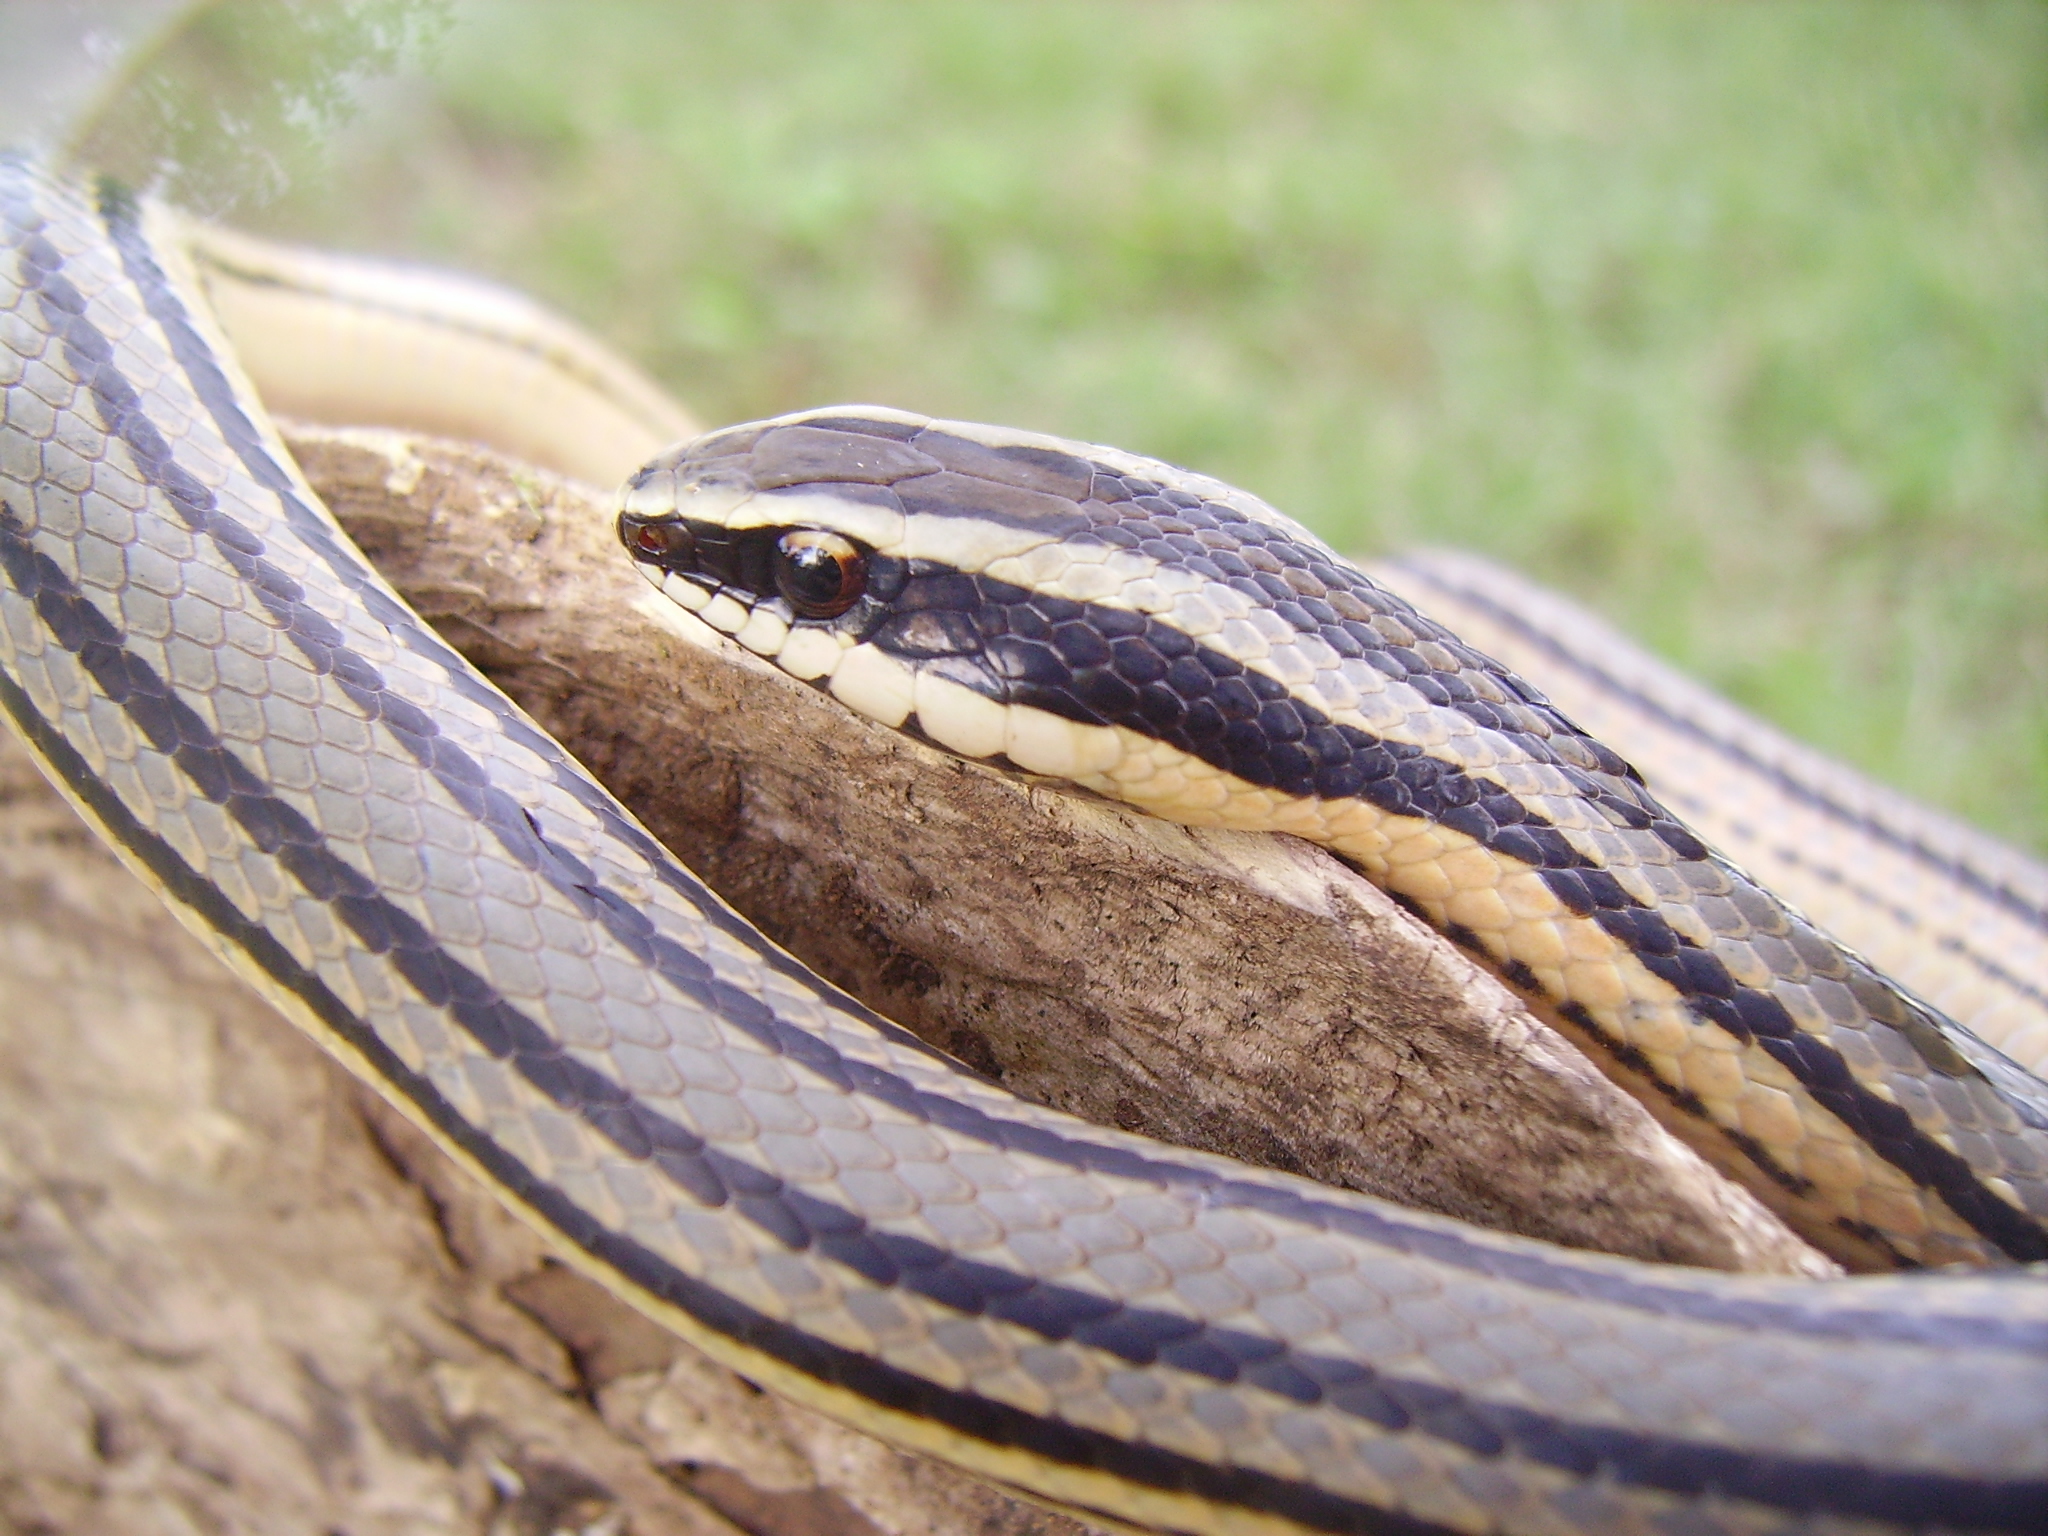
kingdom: Animalia
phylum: Chordata
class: Squamata
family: Colubridae
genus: Conophis
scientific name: Conophis lineatus
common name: Road guarder
